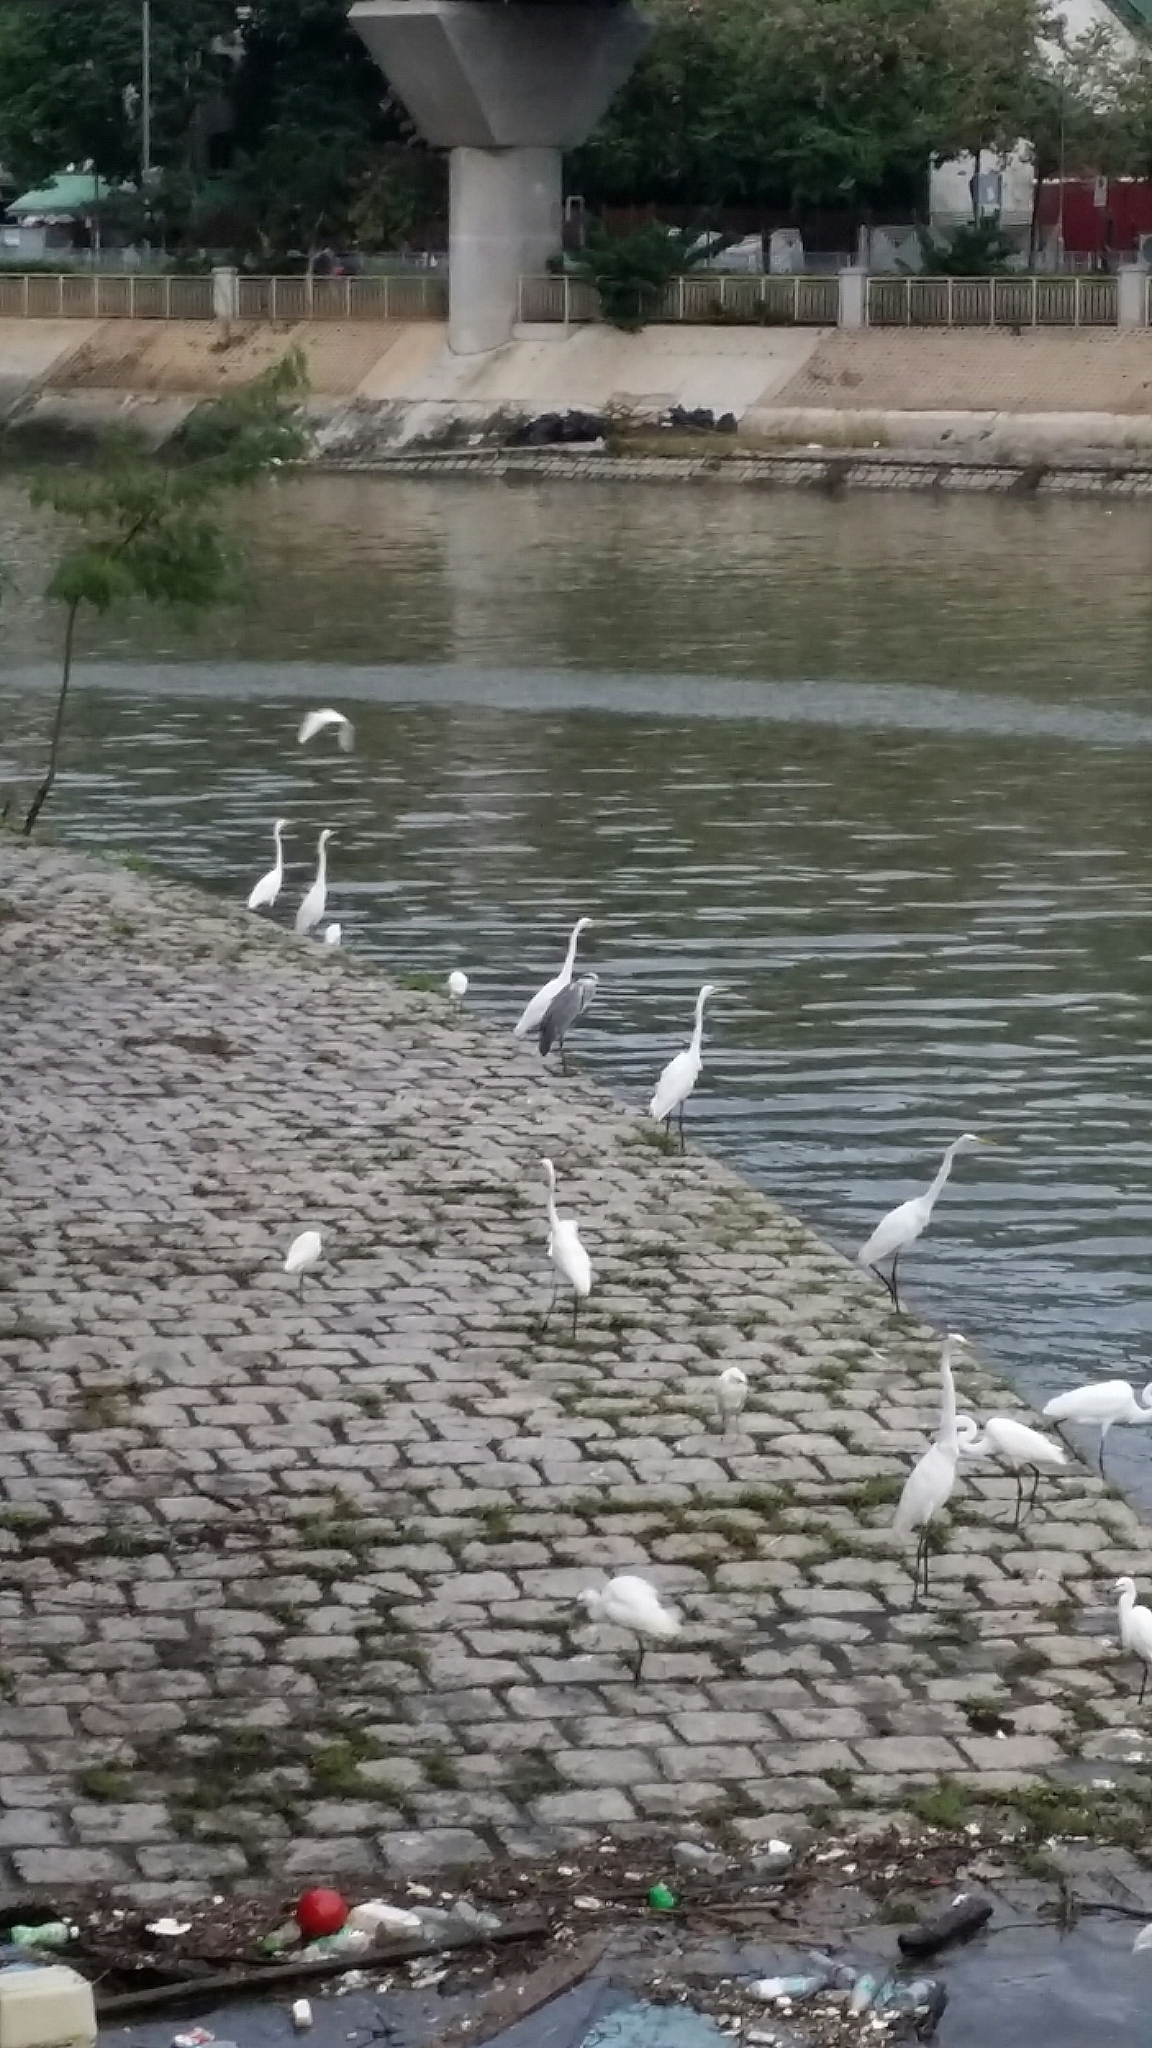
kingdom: Animalia
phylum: Chordata
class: Aves
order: Pelecaniformes
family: Ardeidae
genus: Ardea
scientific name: Ardea alba
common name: Great egret
